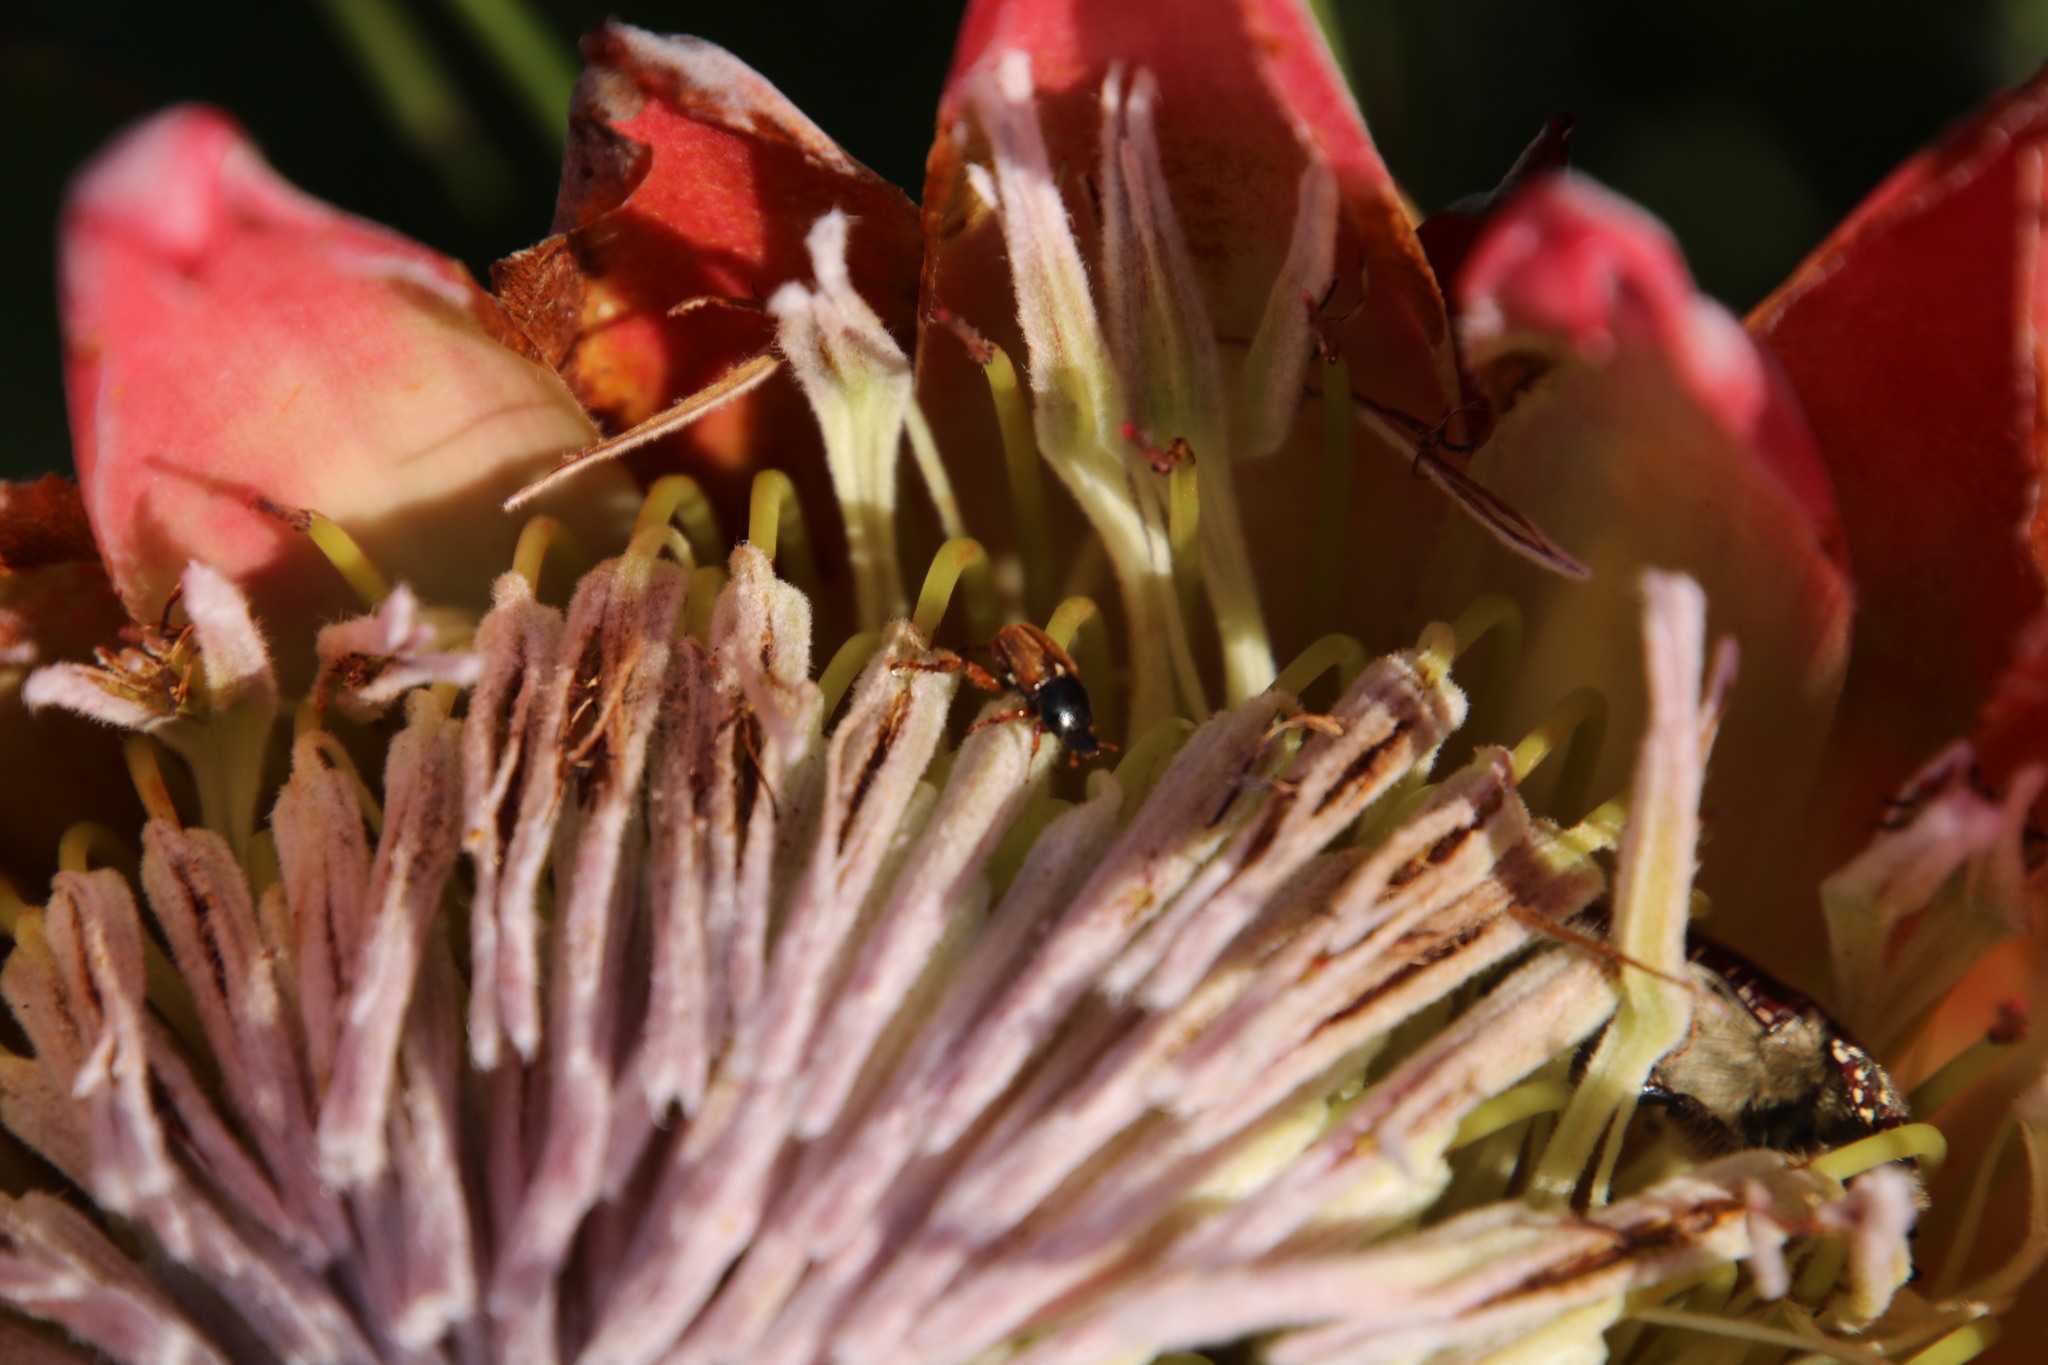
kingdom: Animalia
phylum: Arthropoda
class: Insecta
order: Coleoptera
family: Scarabaeidae
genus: Trichostetha
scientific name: Trichostetha capensis
